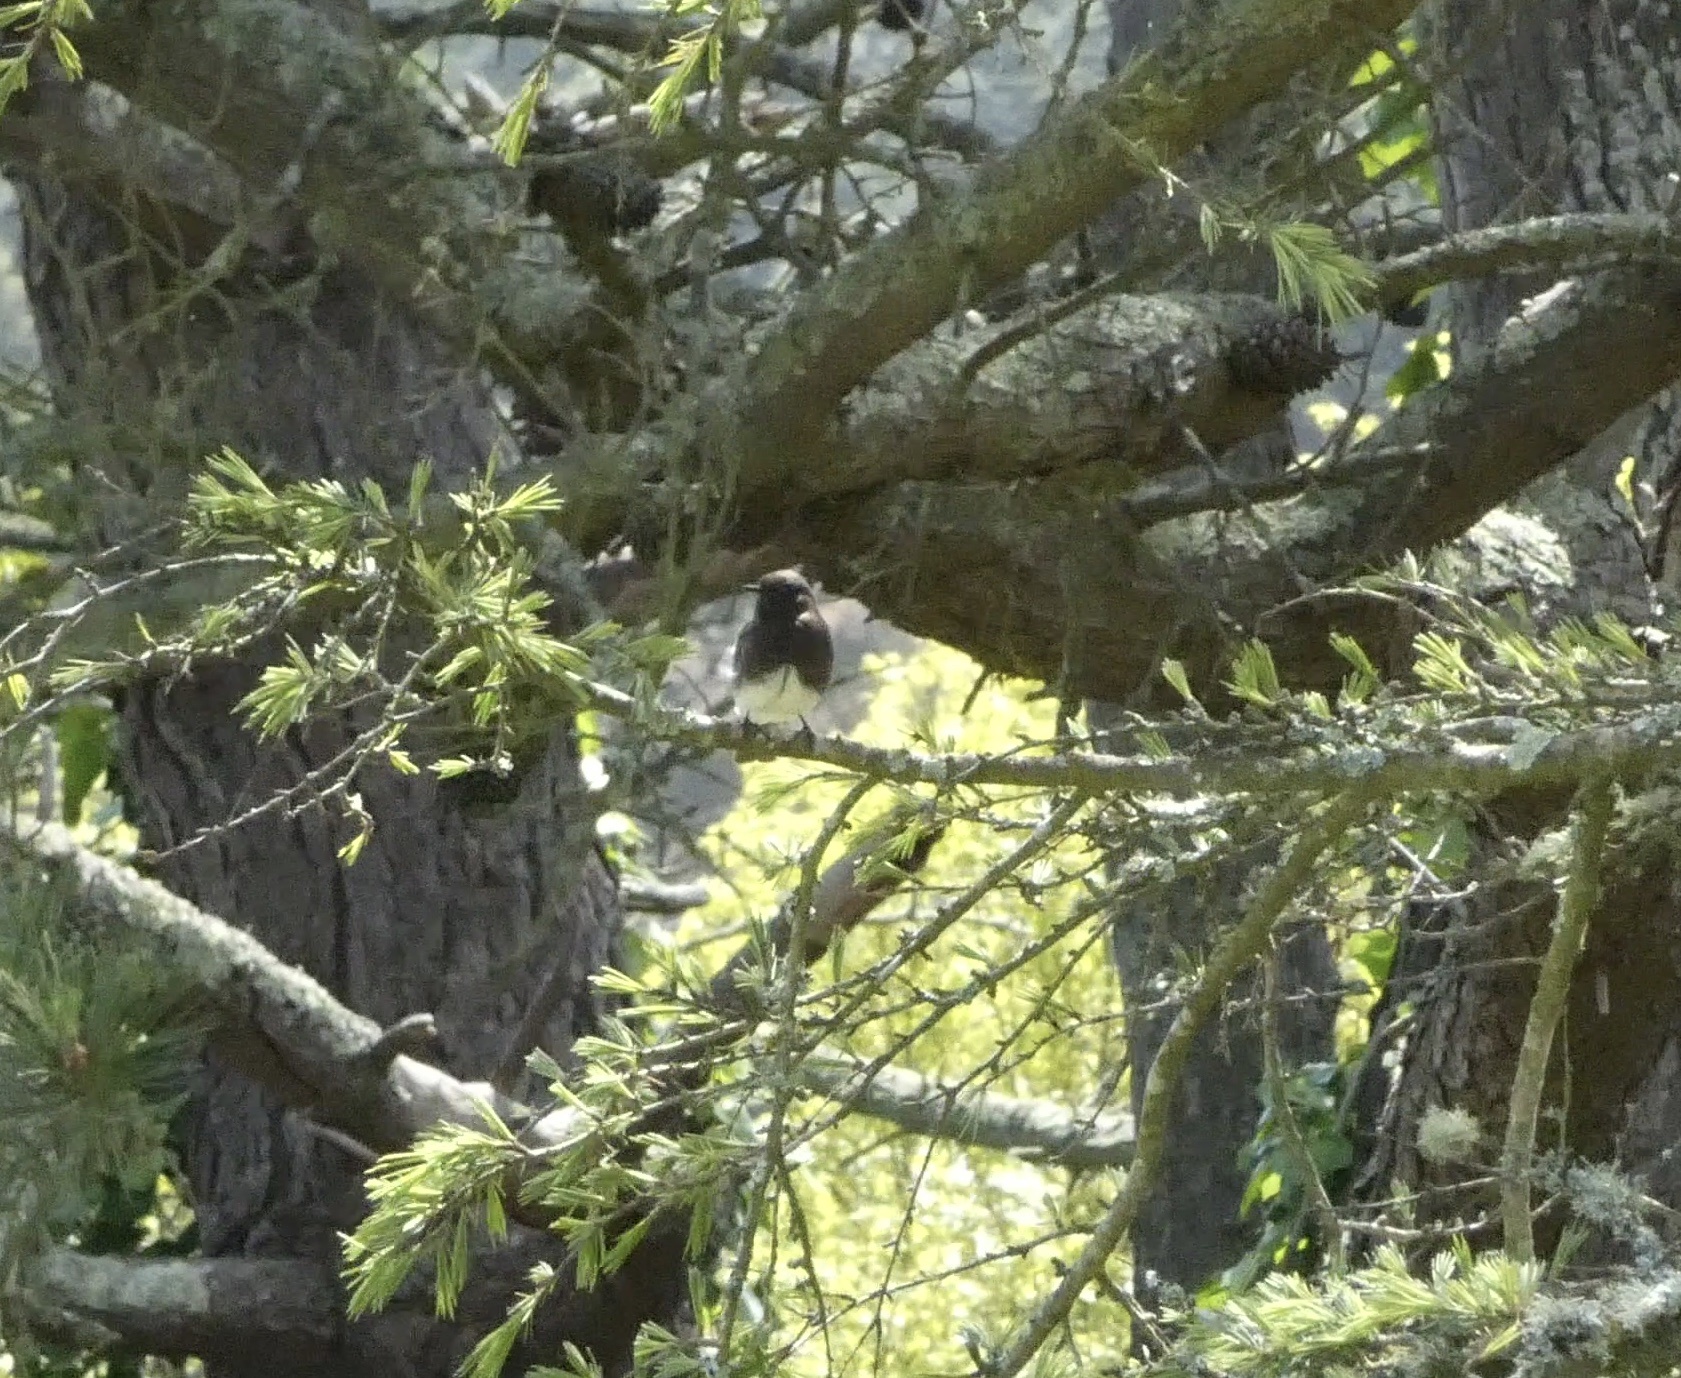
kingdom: Animalia
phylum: Chordata
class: Aves
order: Passeriformes
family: Tyrannidae
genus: Sayornis
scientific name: Sayornis nigricans
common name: Black phoebe
